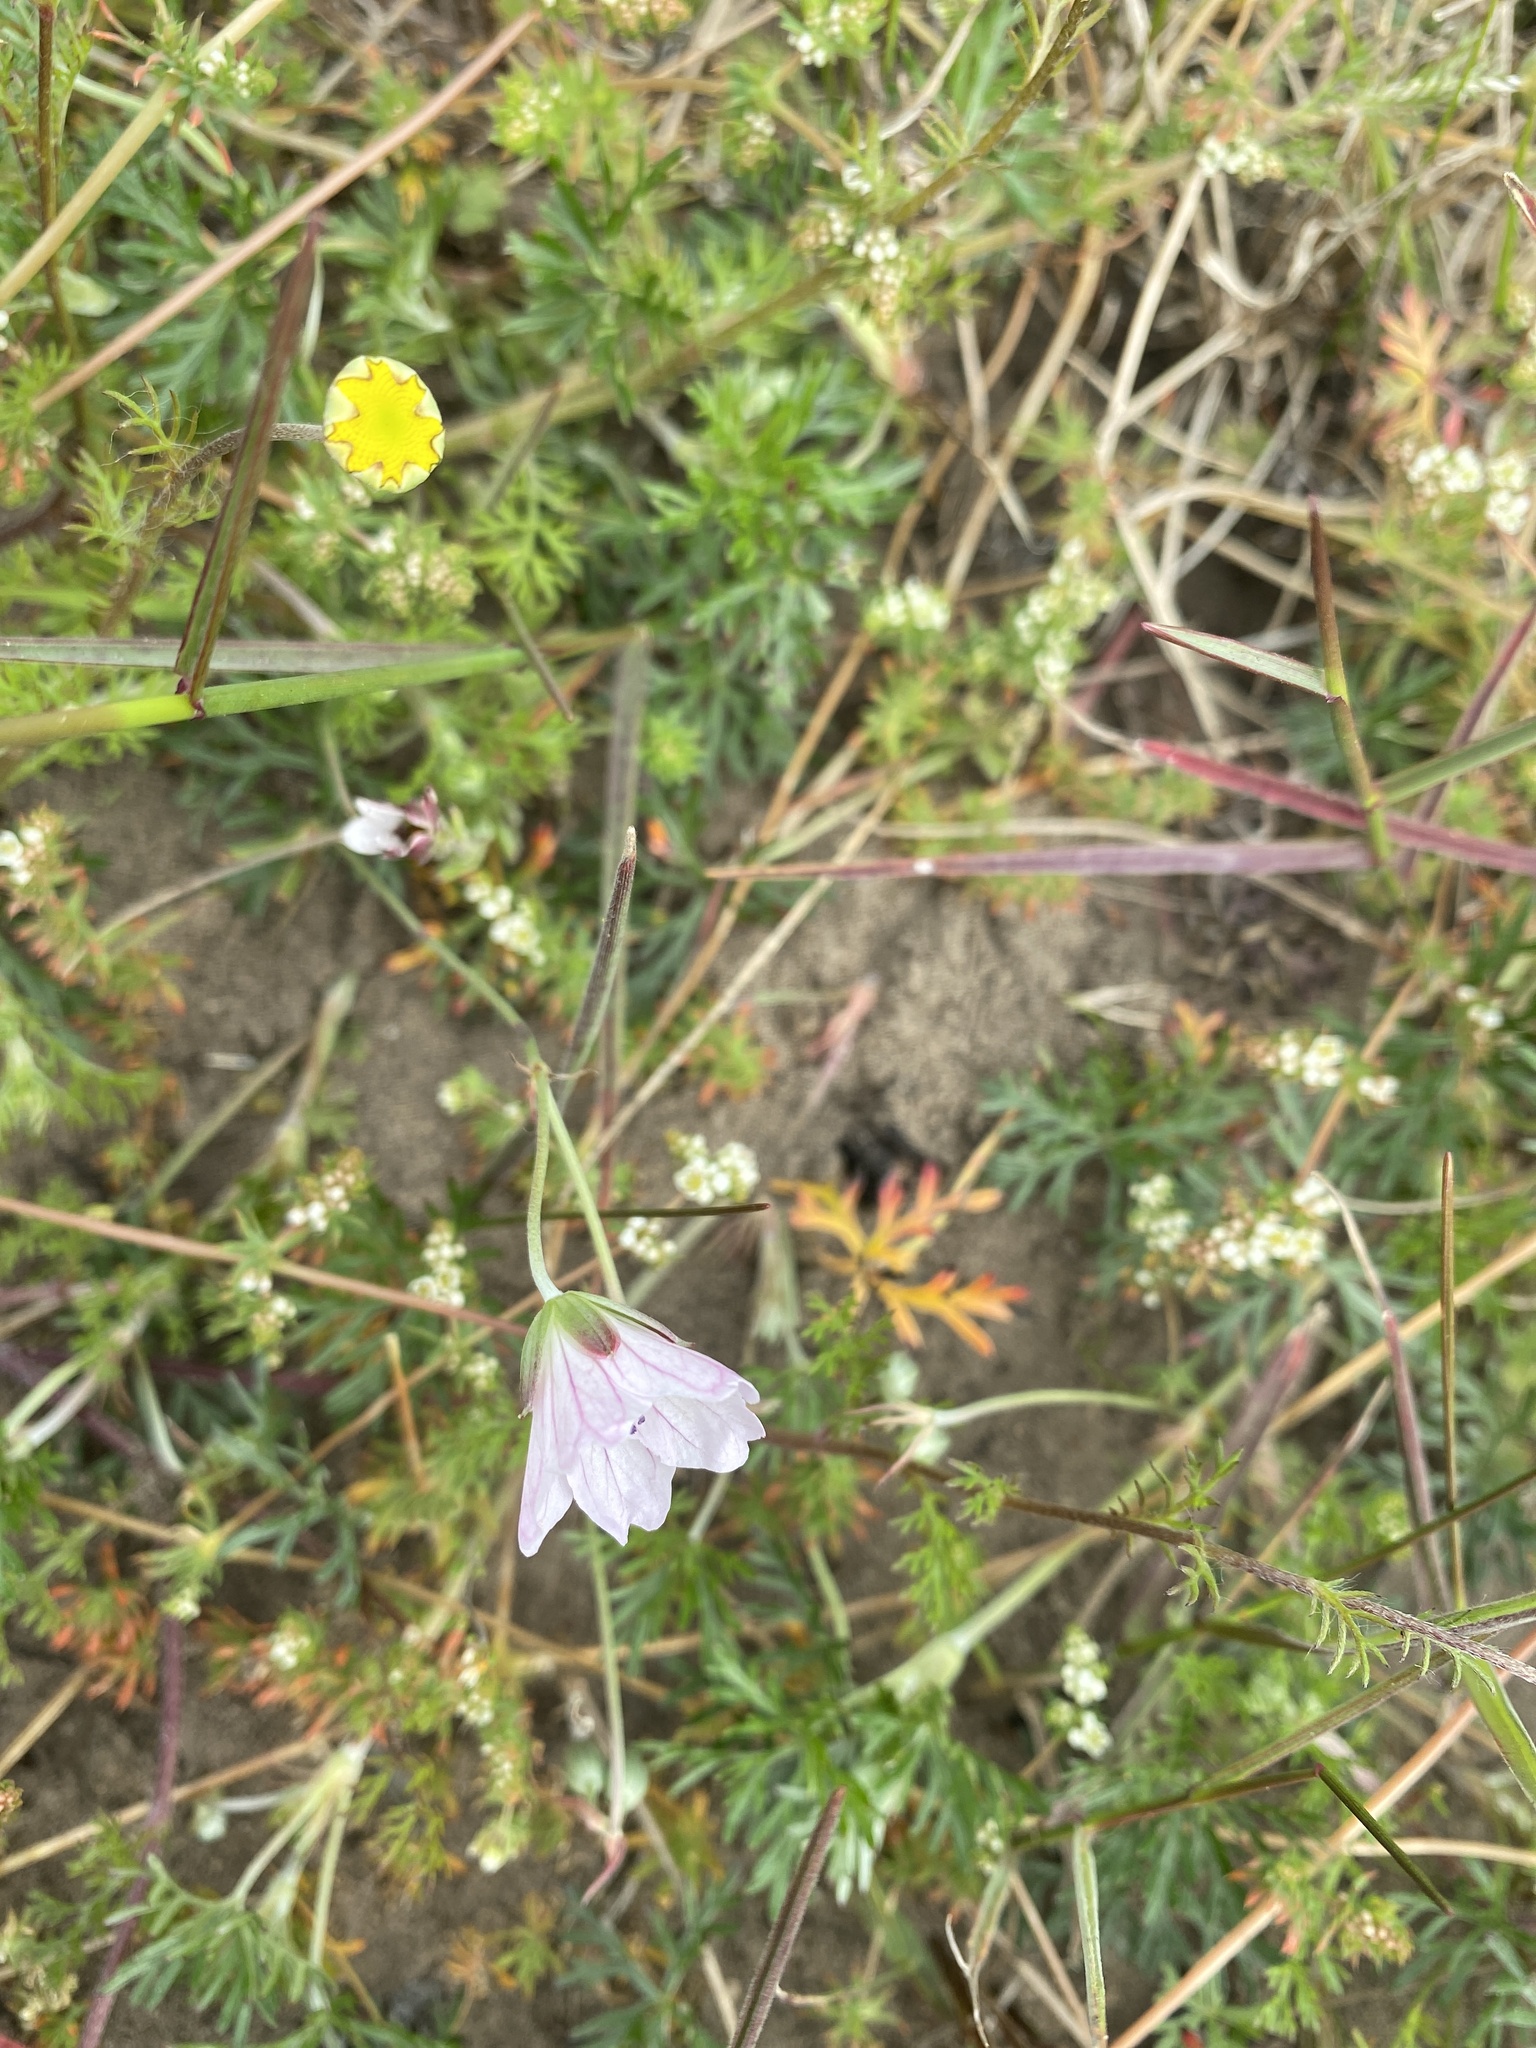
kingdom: Plantae
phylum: Tracheophyta
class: Magnoliopsida
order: Geraniales
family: Geraniaceae
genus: Geranium
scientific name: Geranium incanum
